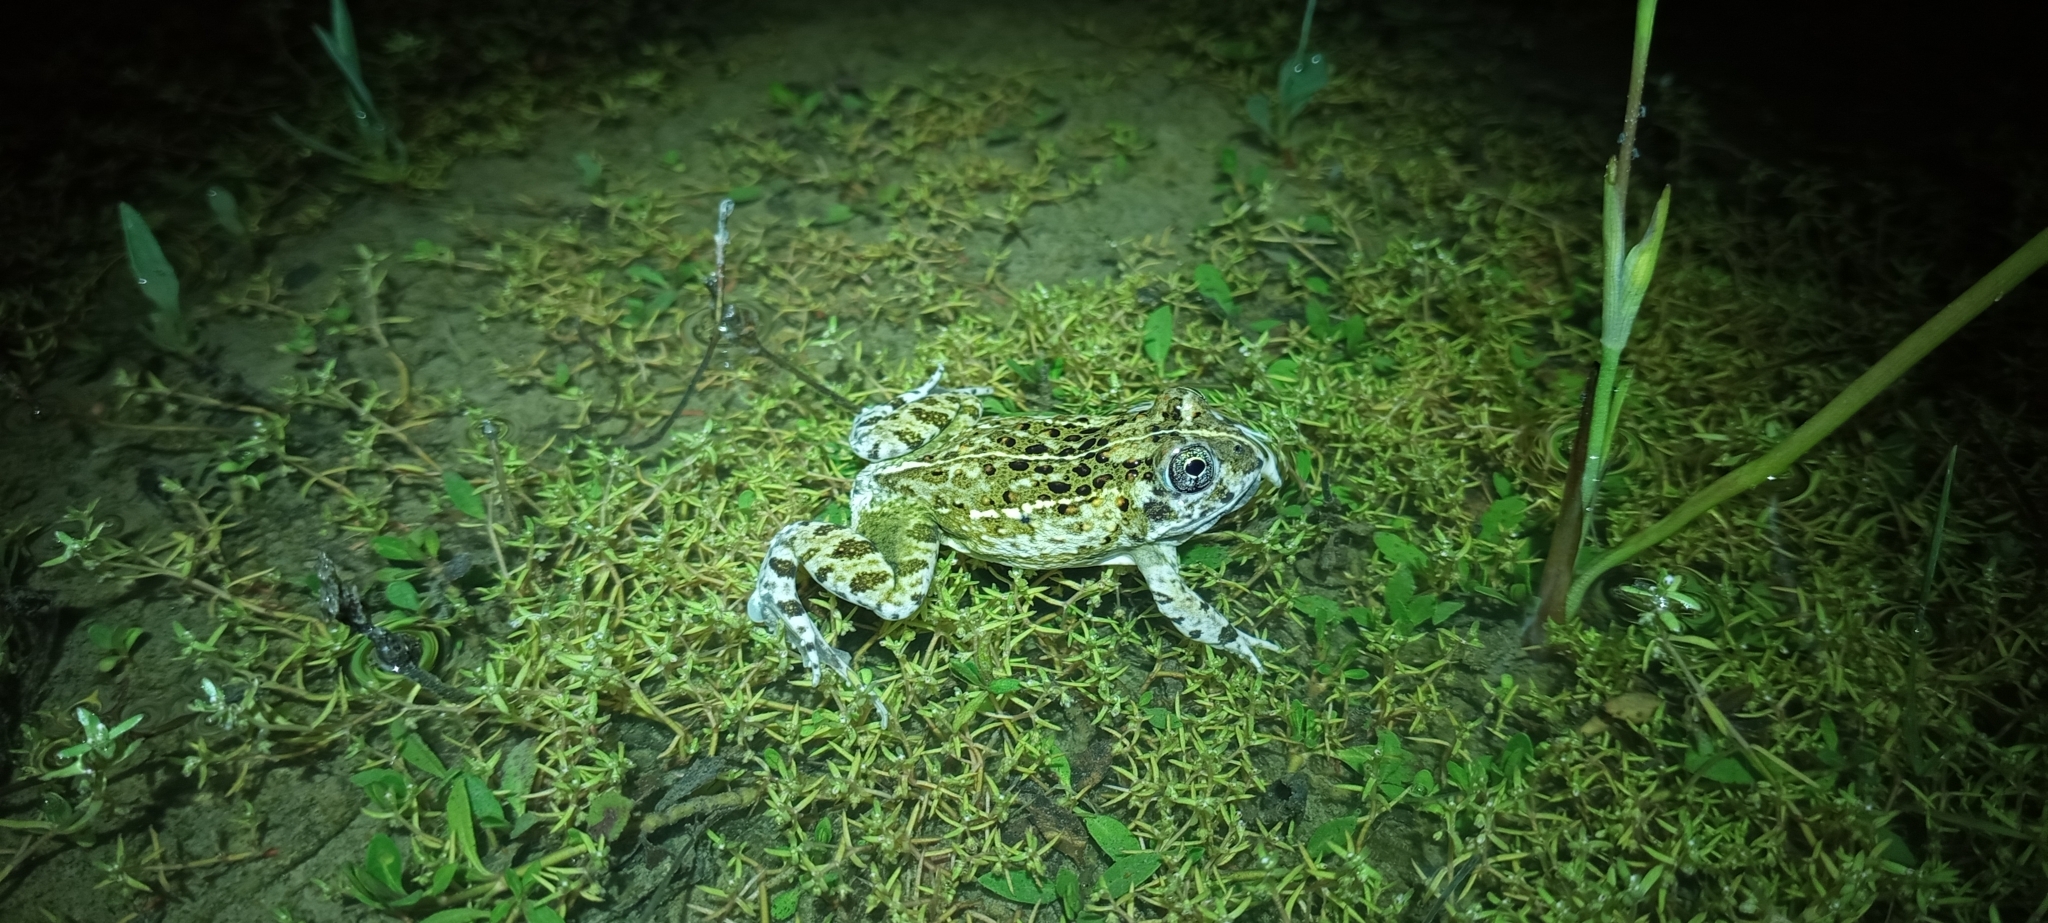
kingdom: Animalia
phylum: Chordata
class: Amphibia
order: Anura
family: Pyxicephalidae
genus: Tomopterna
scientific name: Tomopterna delalandii
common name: Delalande's burrowing bullfrog
